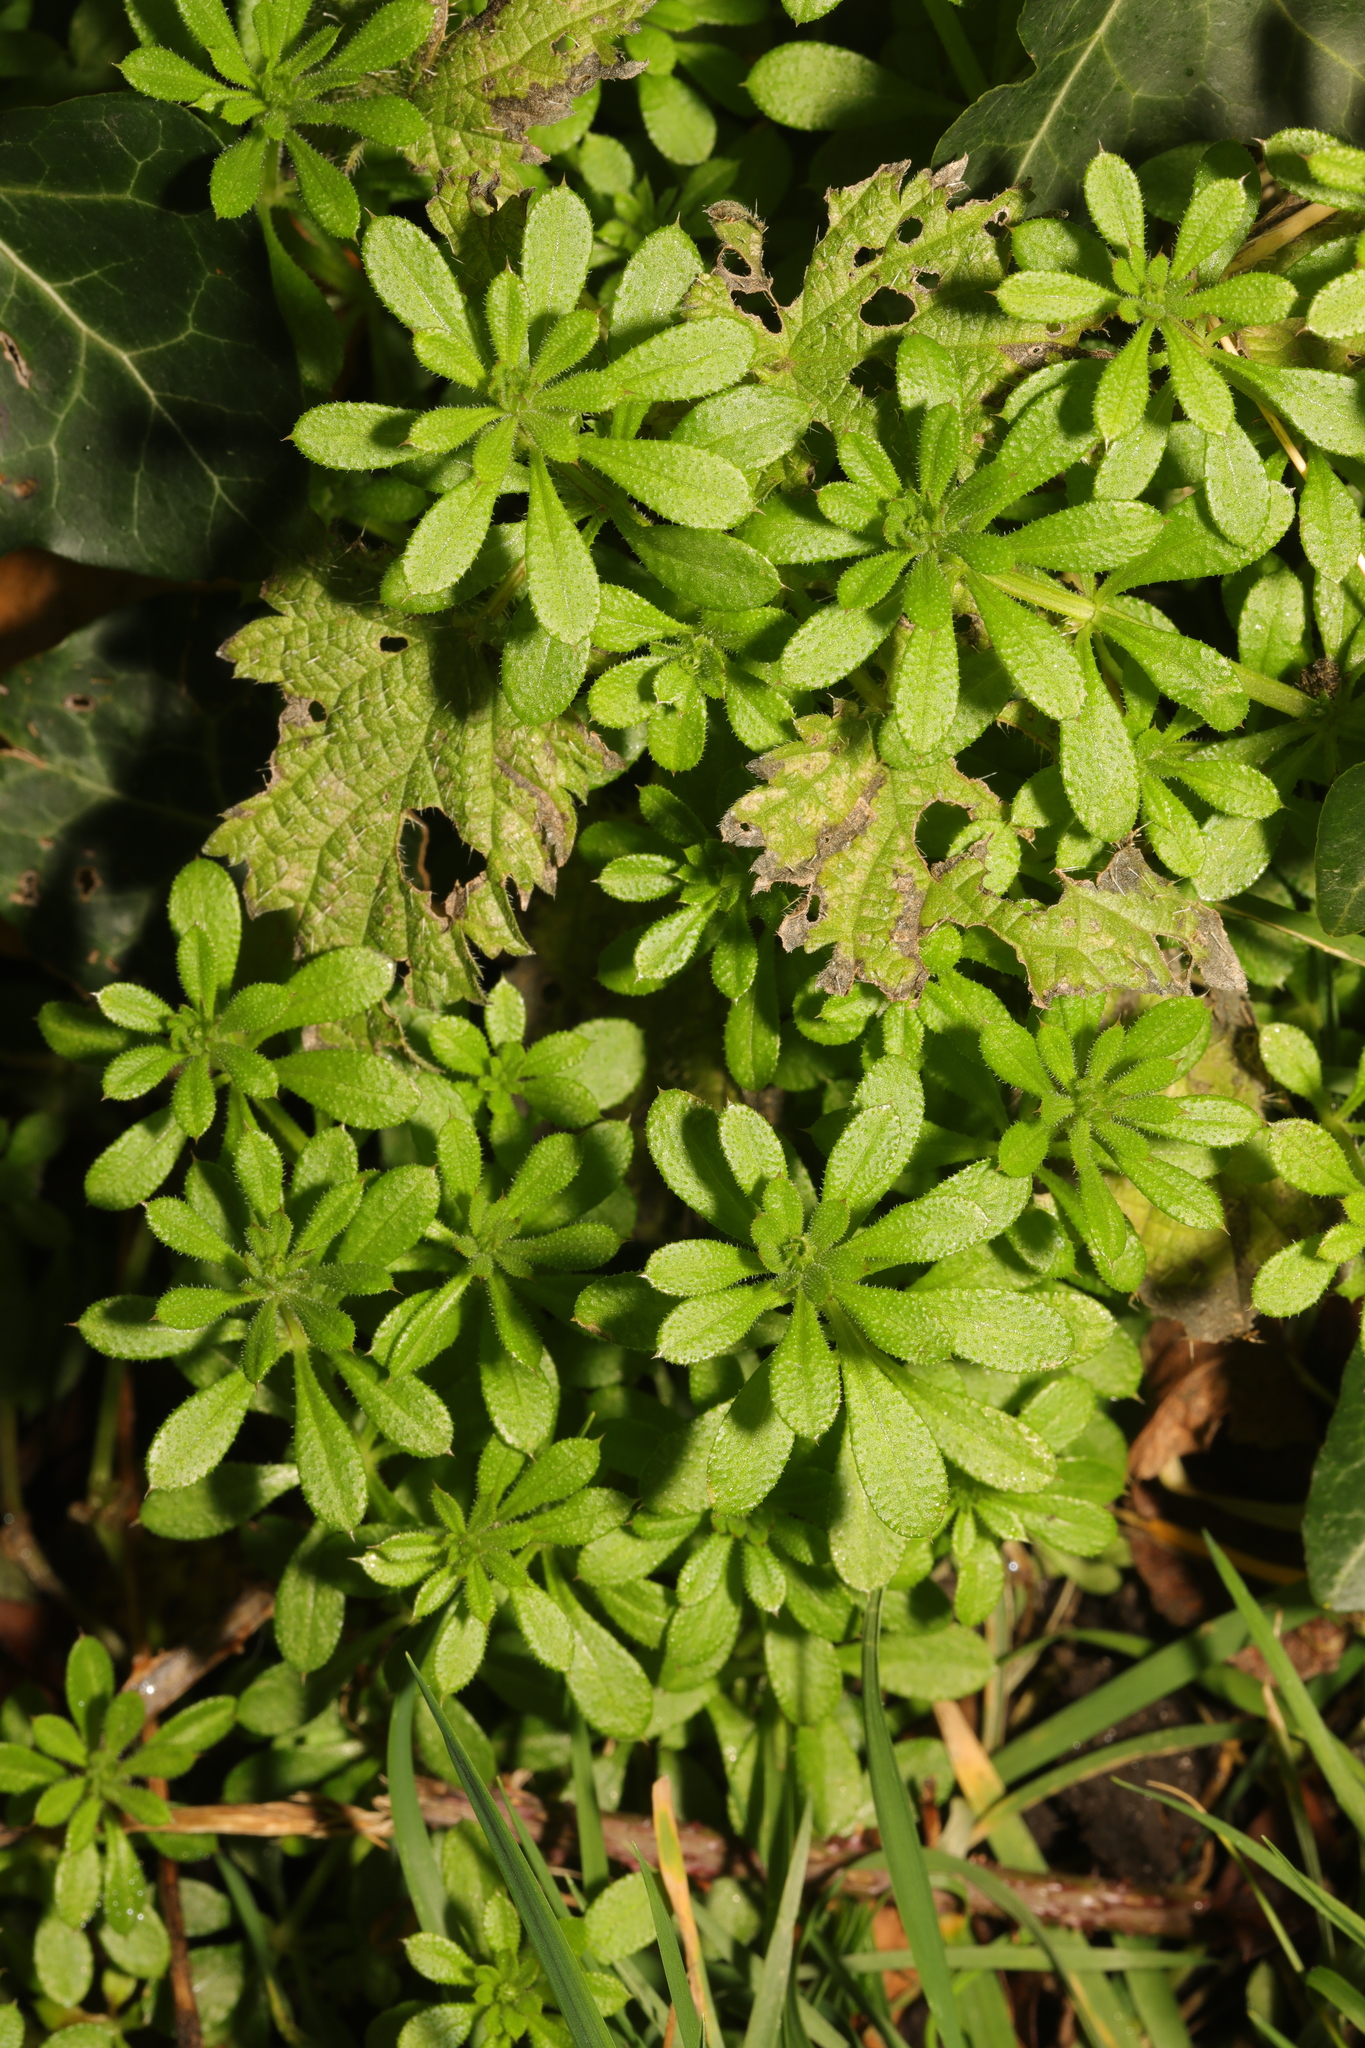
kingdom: Plantae
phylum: Tracheophyta
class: Magnoliopsida
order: Gentianales
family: Rubiaceae
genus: Galium
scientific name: Galium aparine
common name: Cleavers
